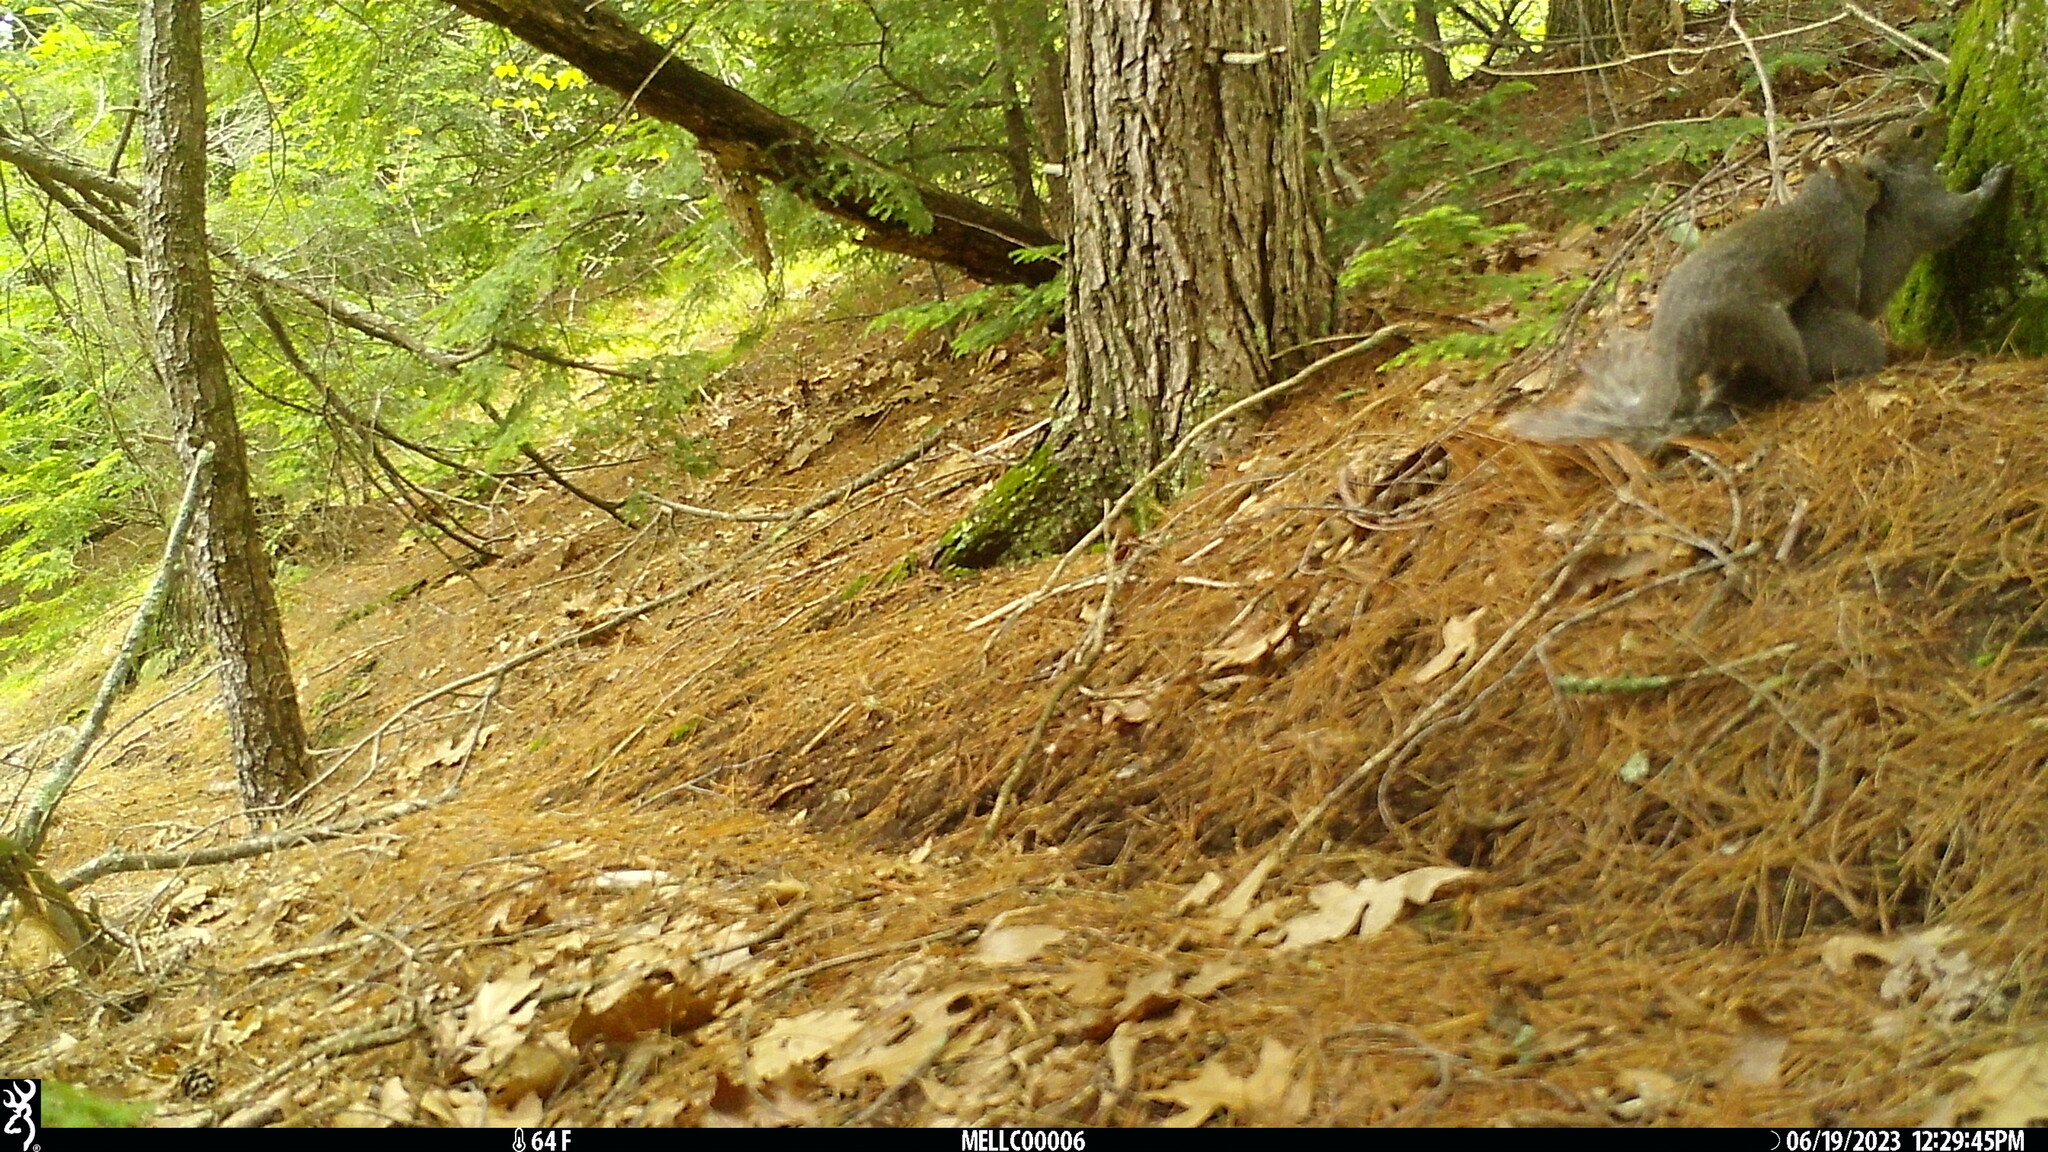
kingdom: Animalia
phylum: Chordata
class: Mammalia
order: Rodentia
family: Sciuridae
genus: Sciurus
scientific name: Sciurus carolinensis
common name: Eastern gray squirrel
